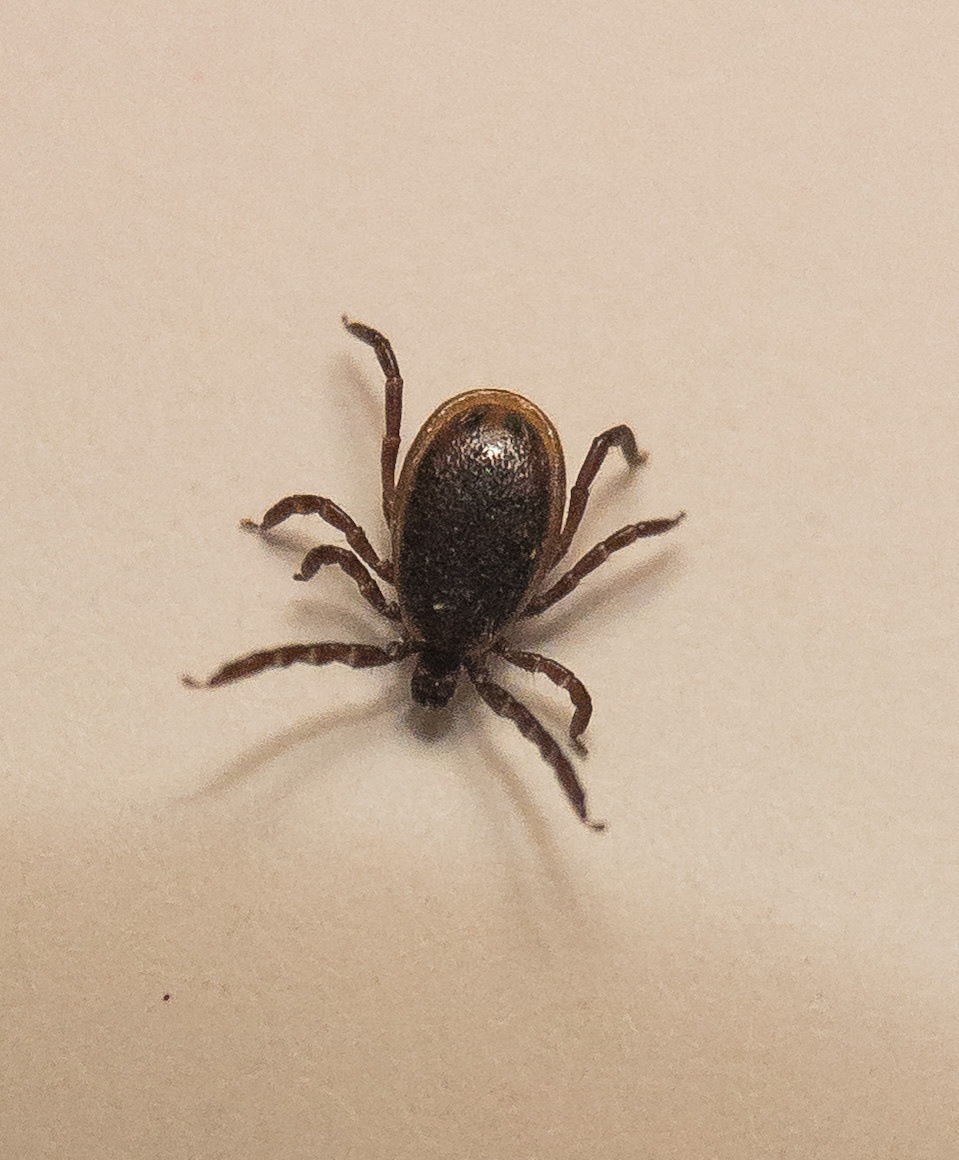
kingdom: Animalia
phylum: Arthropoda
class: Arachnida
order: Ixodida
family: Ixodidae
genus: Ixodes
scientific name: Ixodes scapularis
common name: Black legged tick
